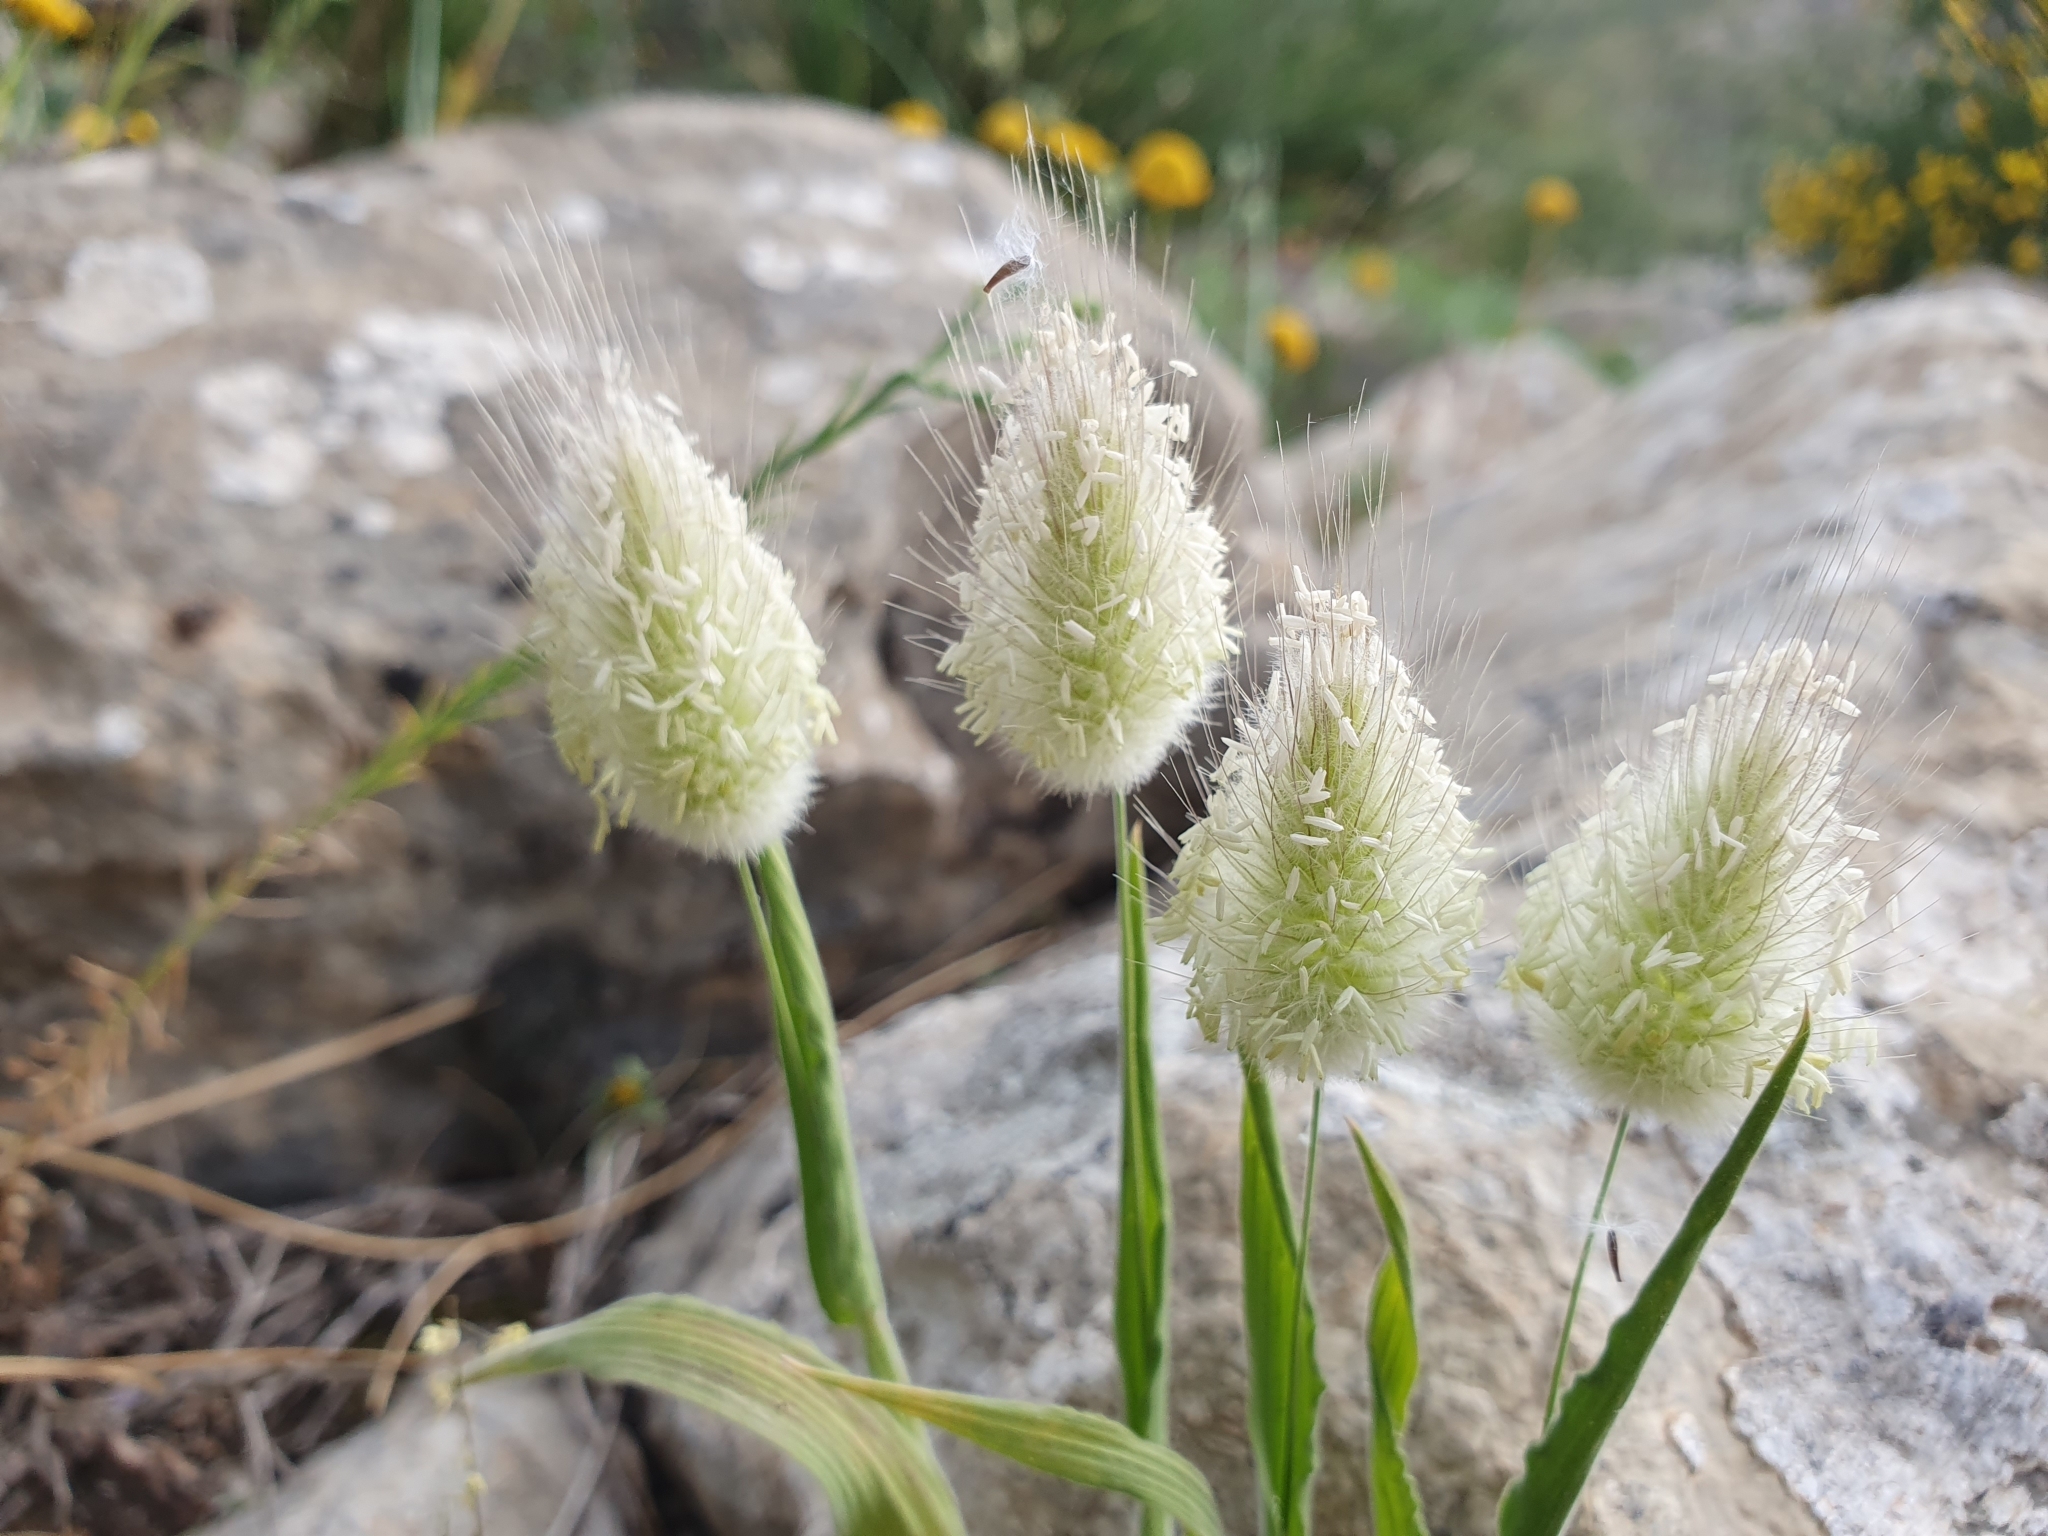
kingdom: Plantae
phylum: Tracheophyta
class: Liliopsida
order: Poales
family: Poaceae
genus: Lagurus
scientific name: Lagurus ovatus
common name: Hare's-tail
